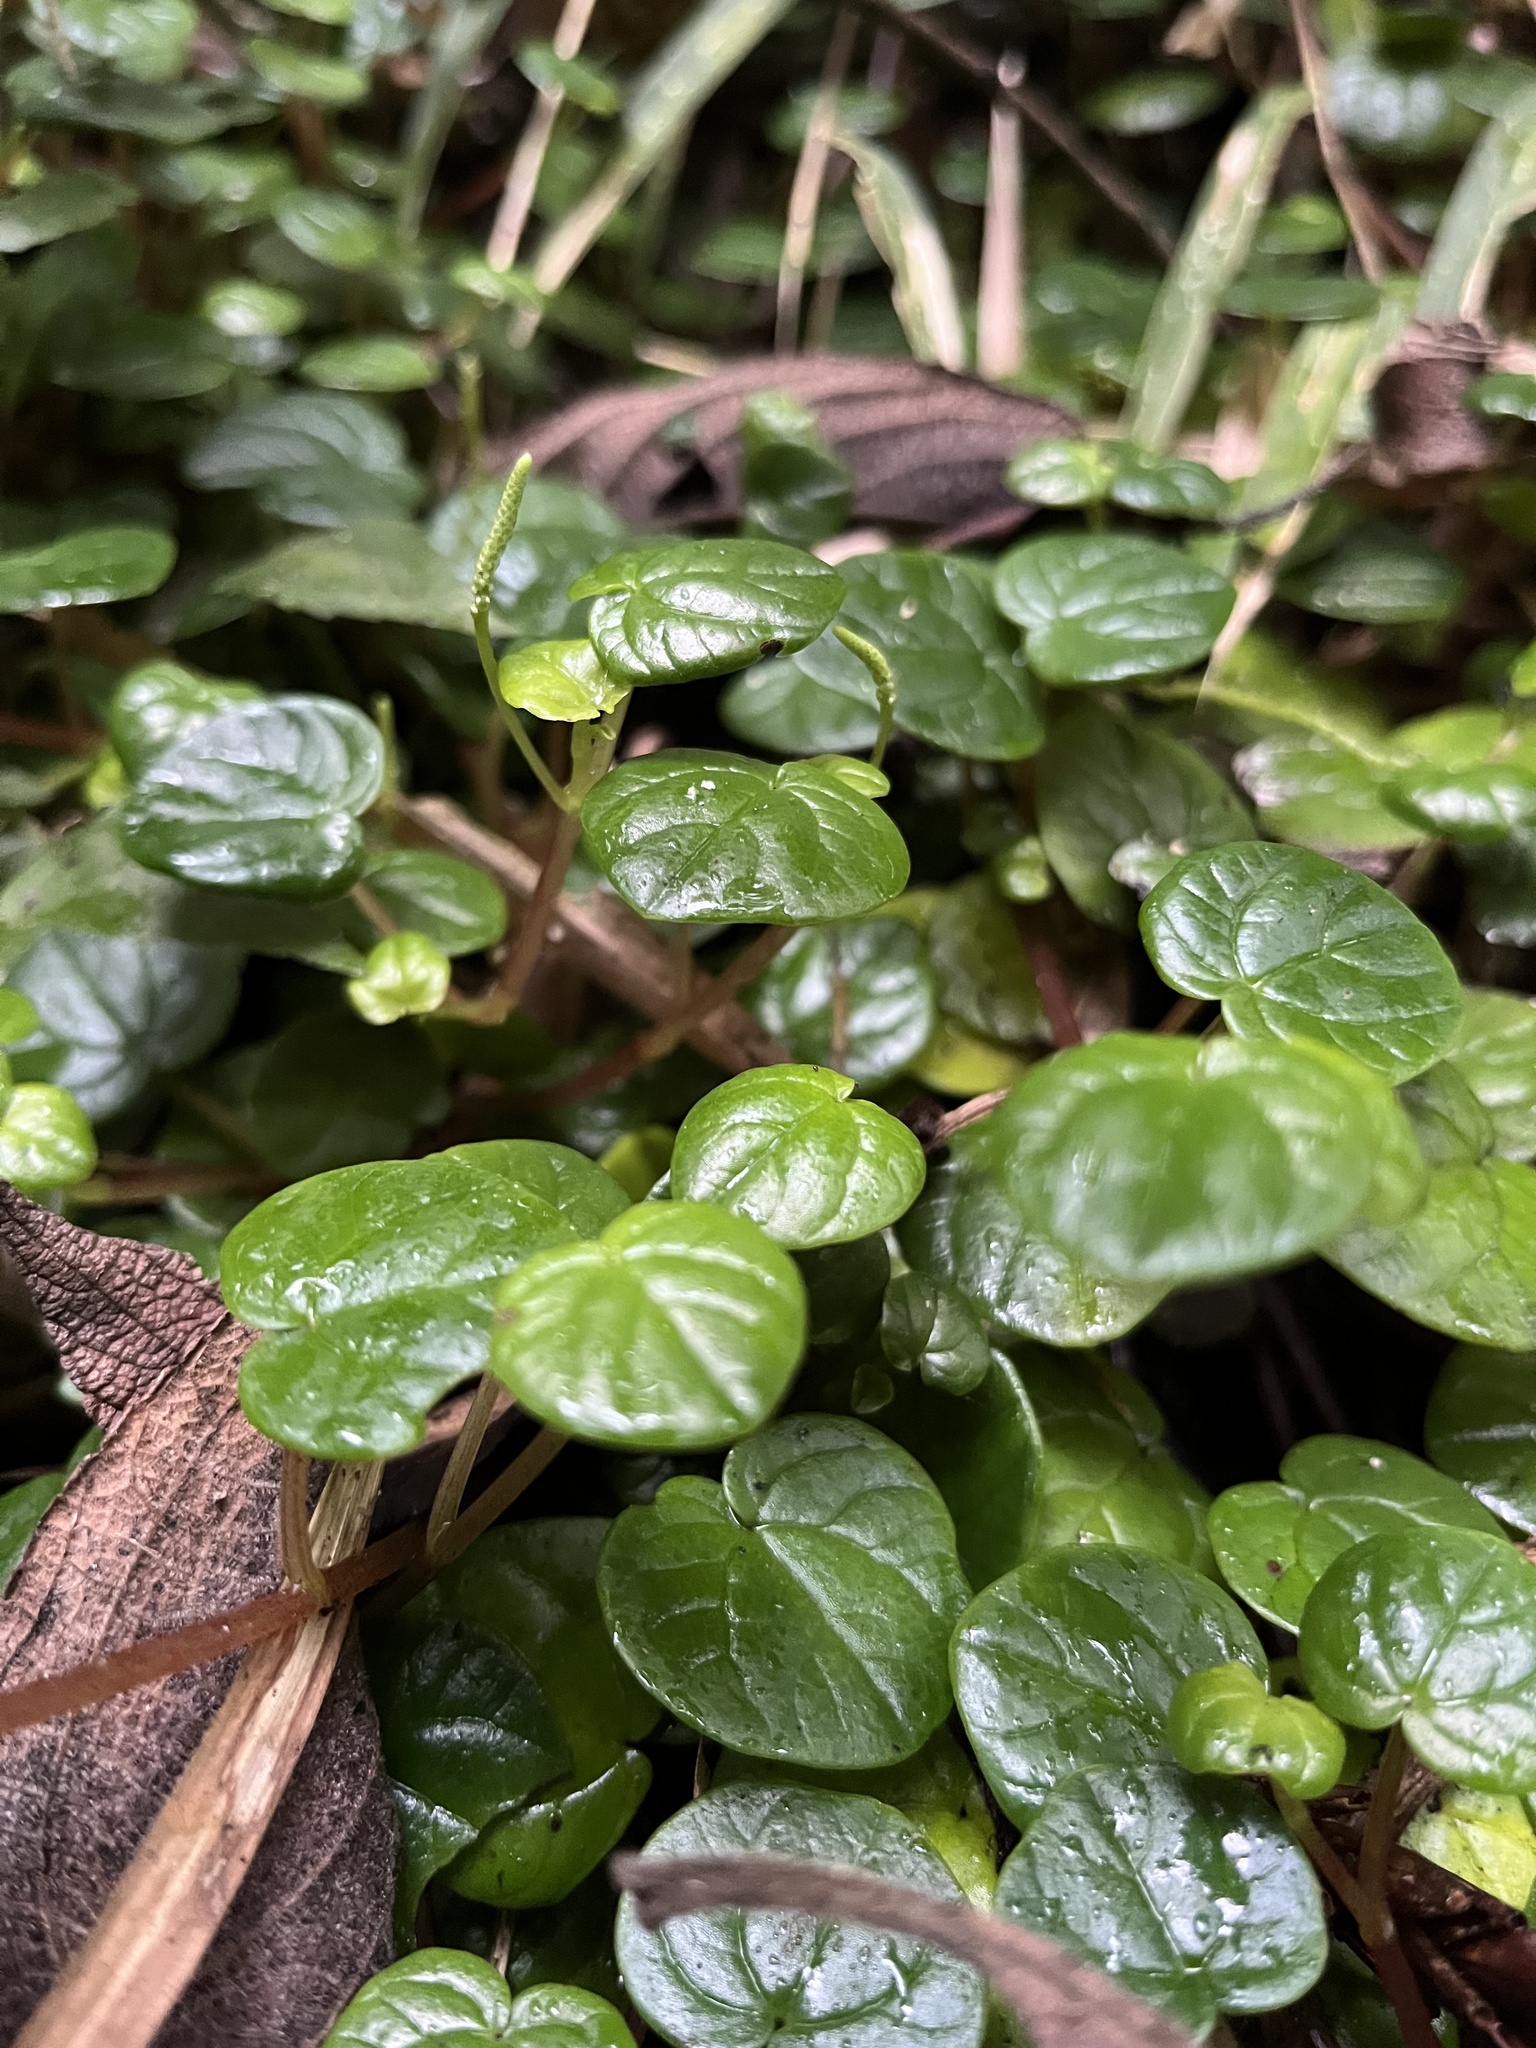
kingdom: Plantae
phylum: Tracheophyta
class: Magnoliopsida
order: Piperales
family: Piperaceae
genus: Peperomia
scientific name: Peperomia ubate-susanensis
